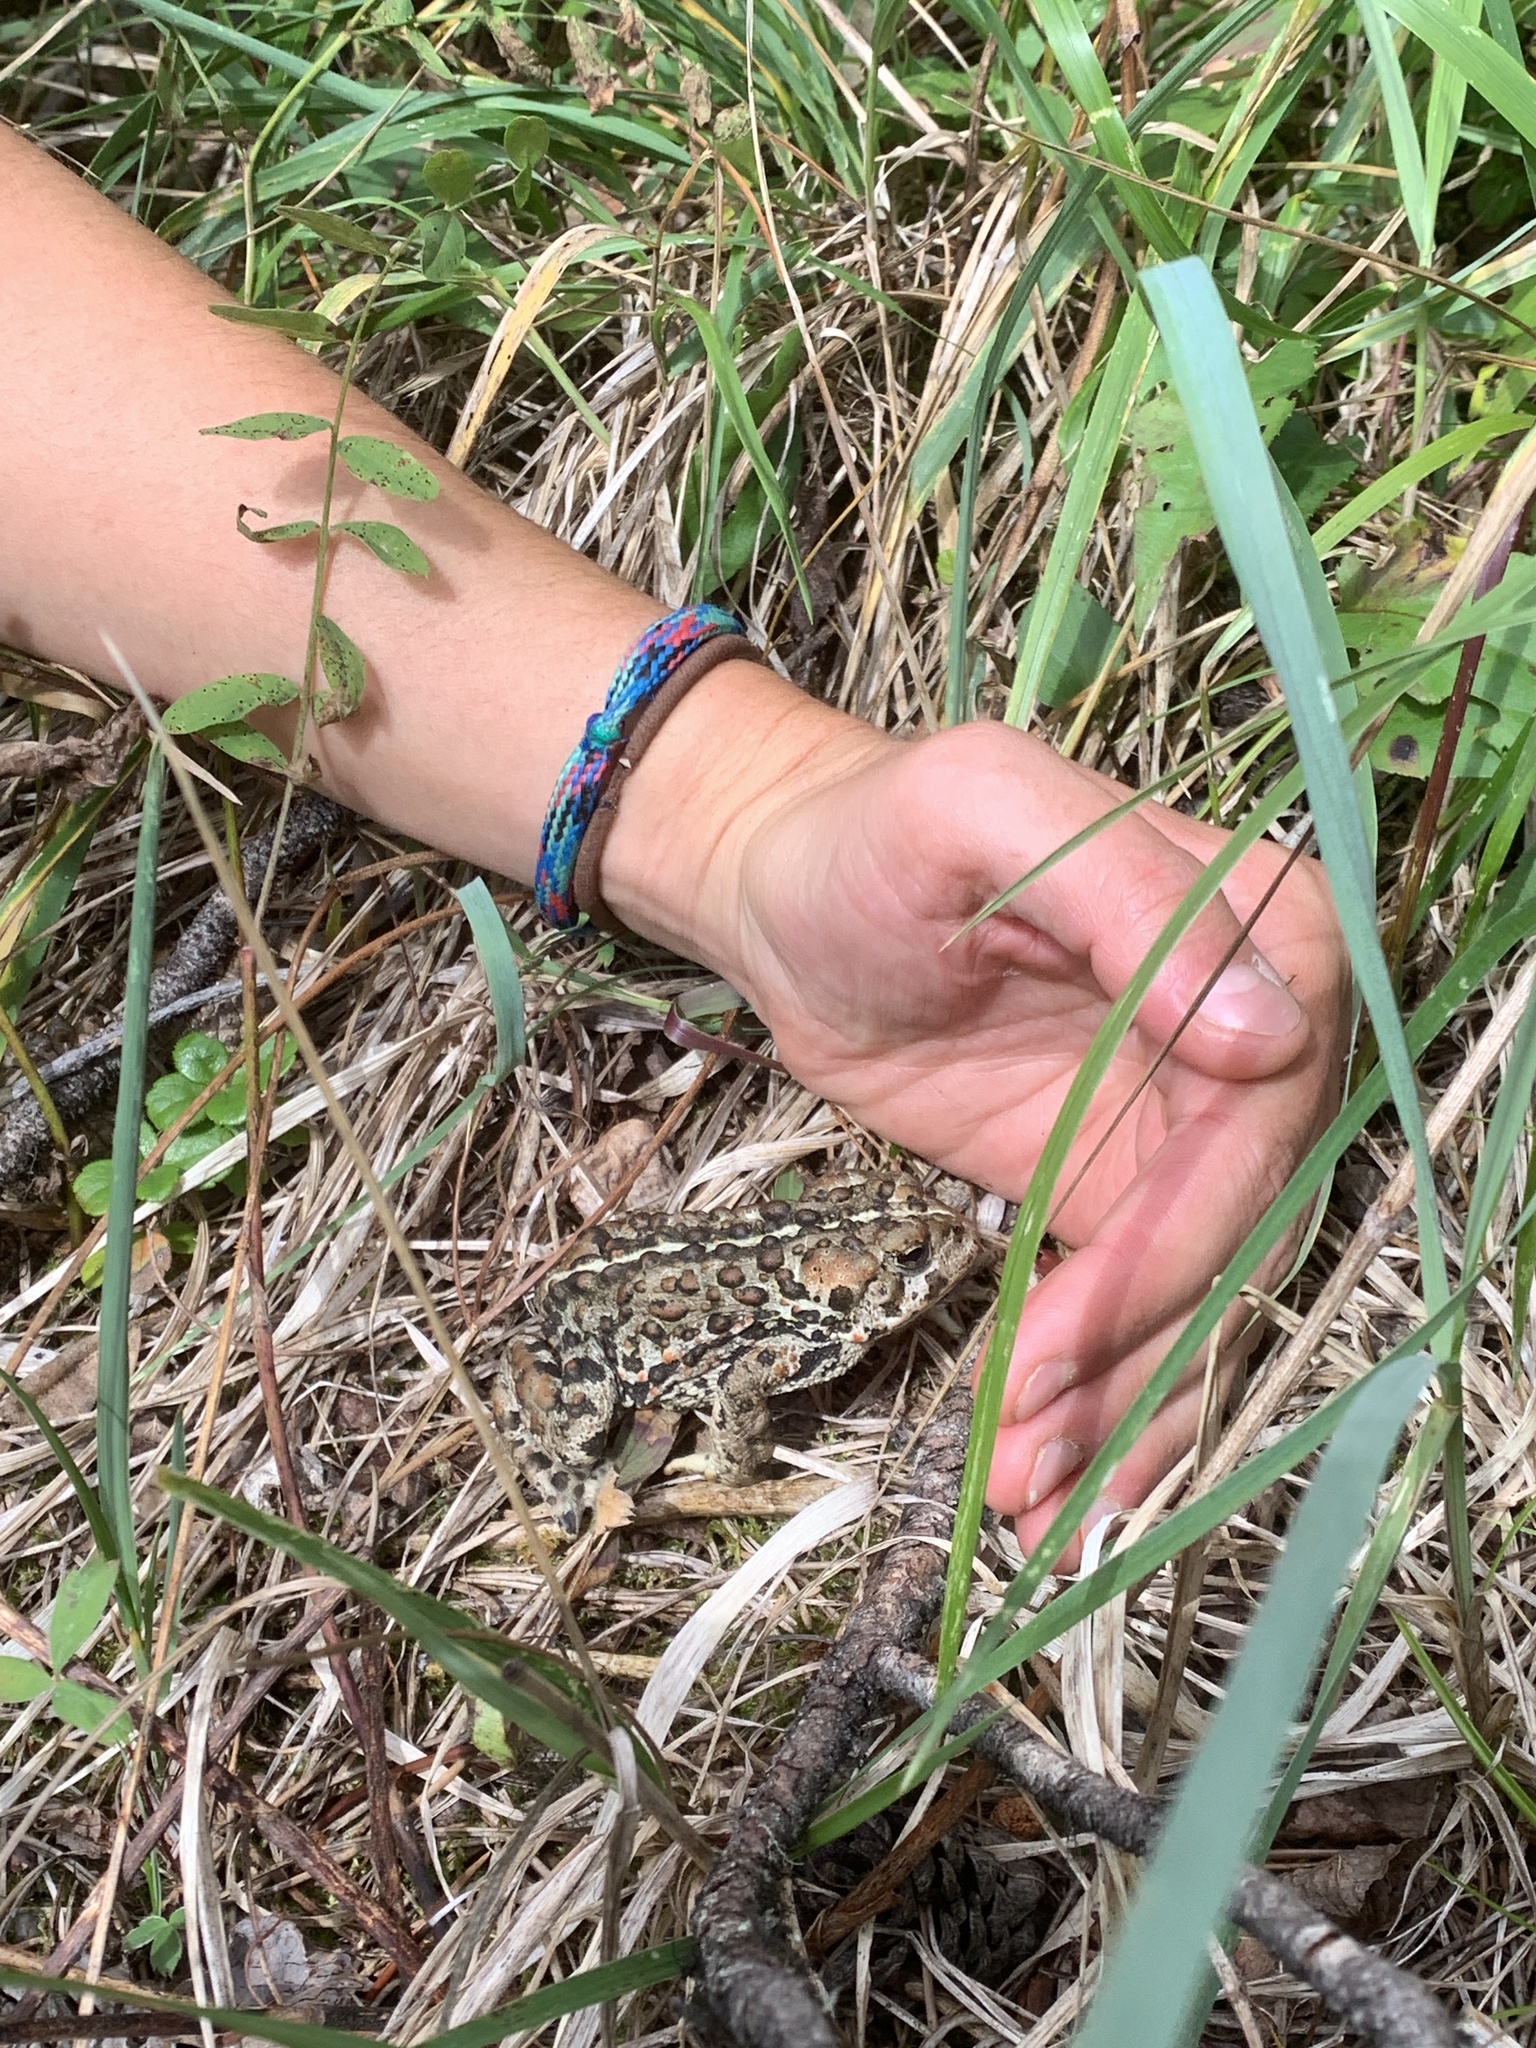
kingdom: Animalia
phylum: Chordata
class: Amphibia
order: Anura
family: Bufonidae
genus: Anaxyrus
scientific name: Anaxyrus boreas
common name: Western toad
